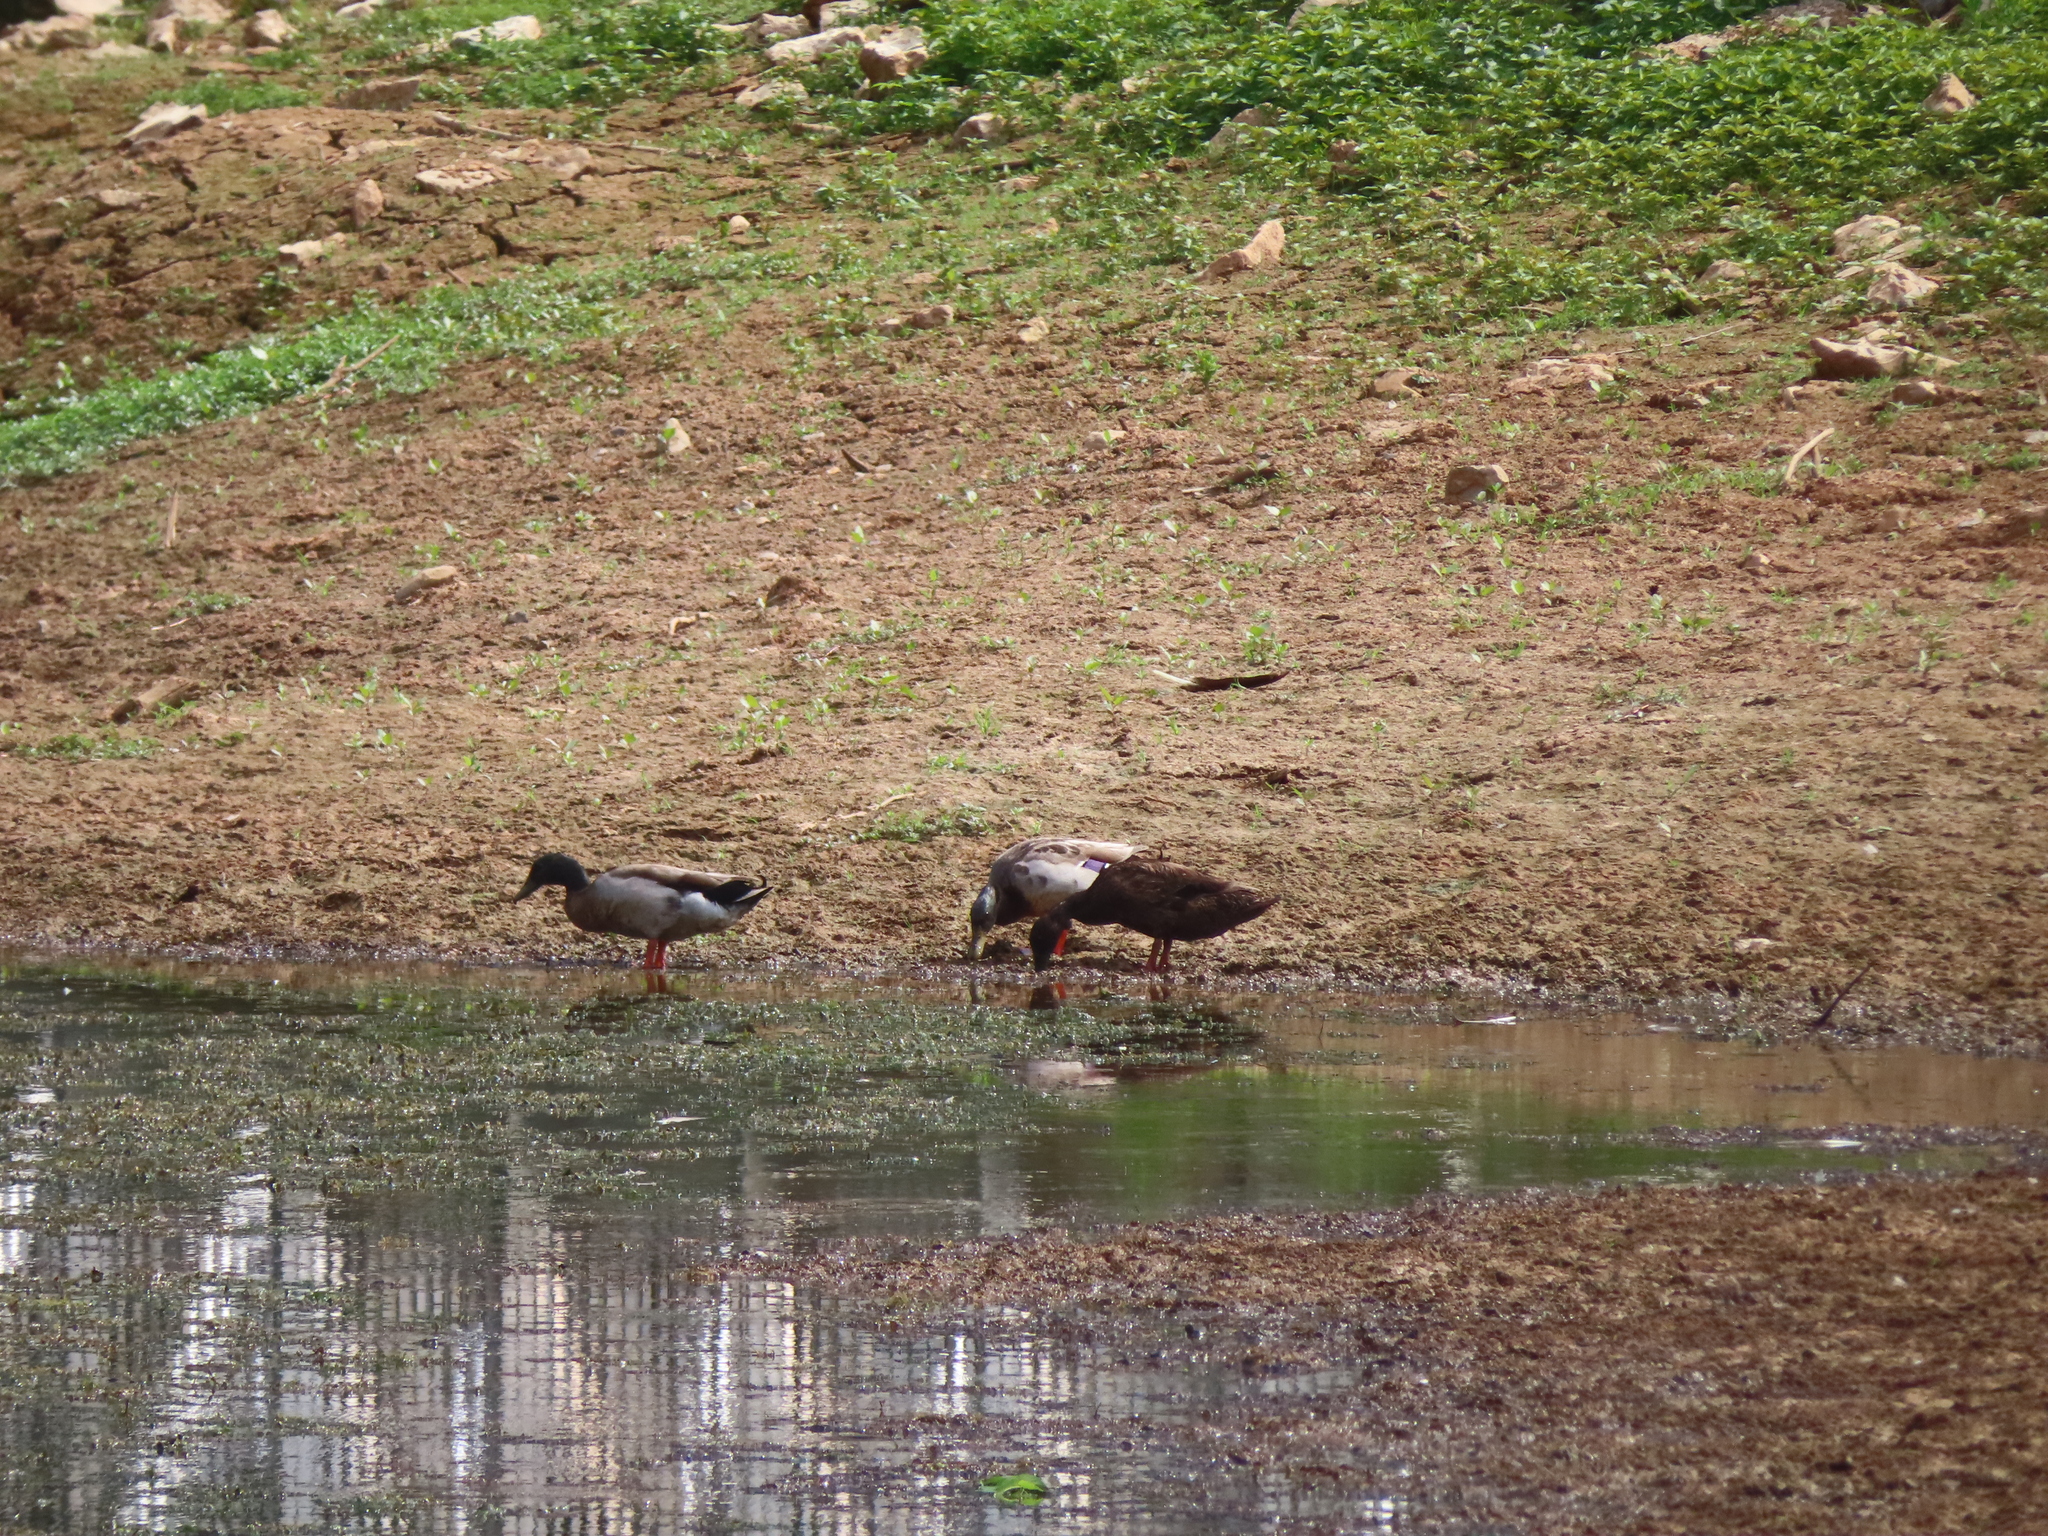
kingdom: Animalia
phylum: Chordata
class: Aves
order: Anseriformes
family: Anatidae
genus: Anas
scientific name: Anas platyrhynchos
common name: Mallard
